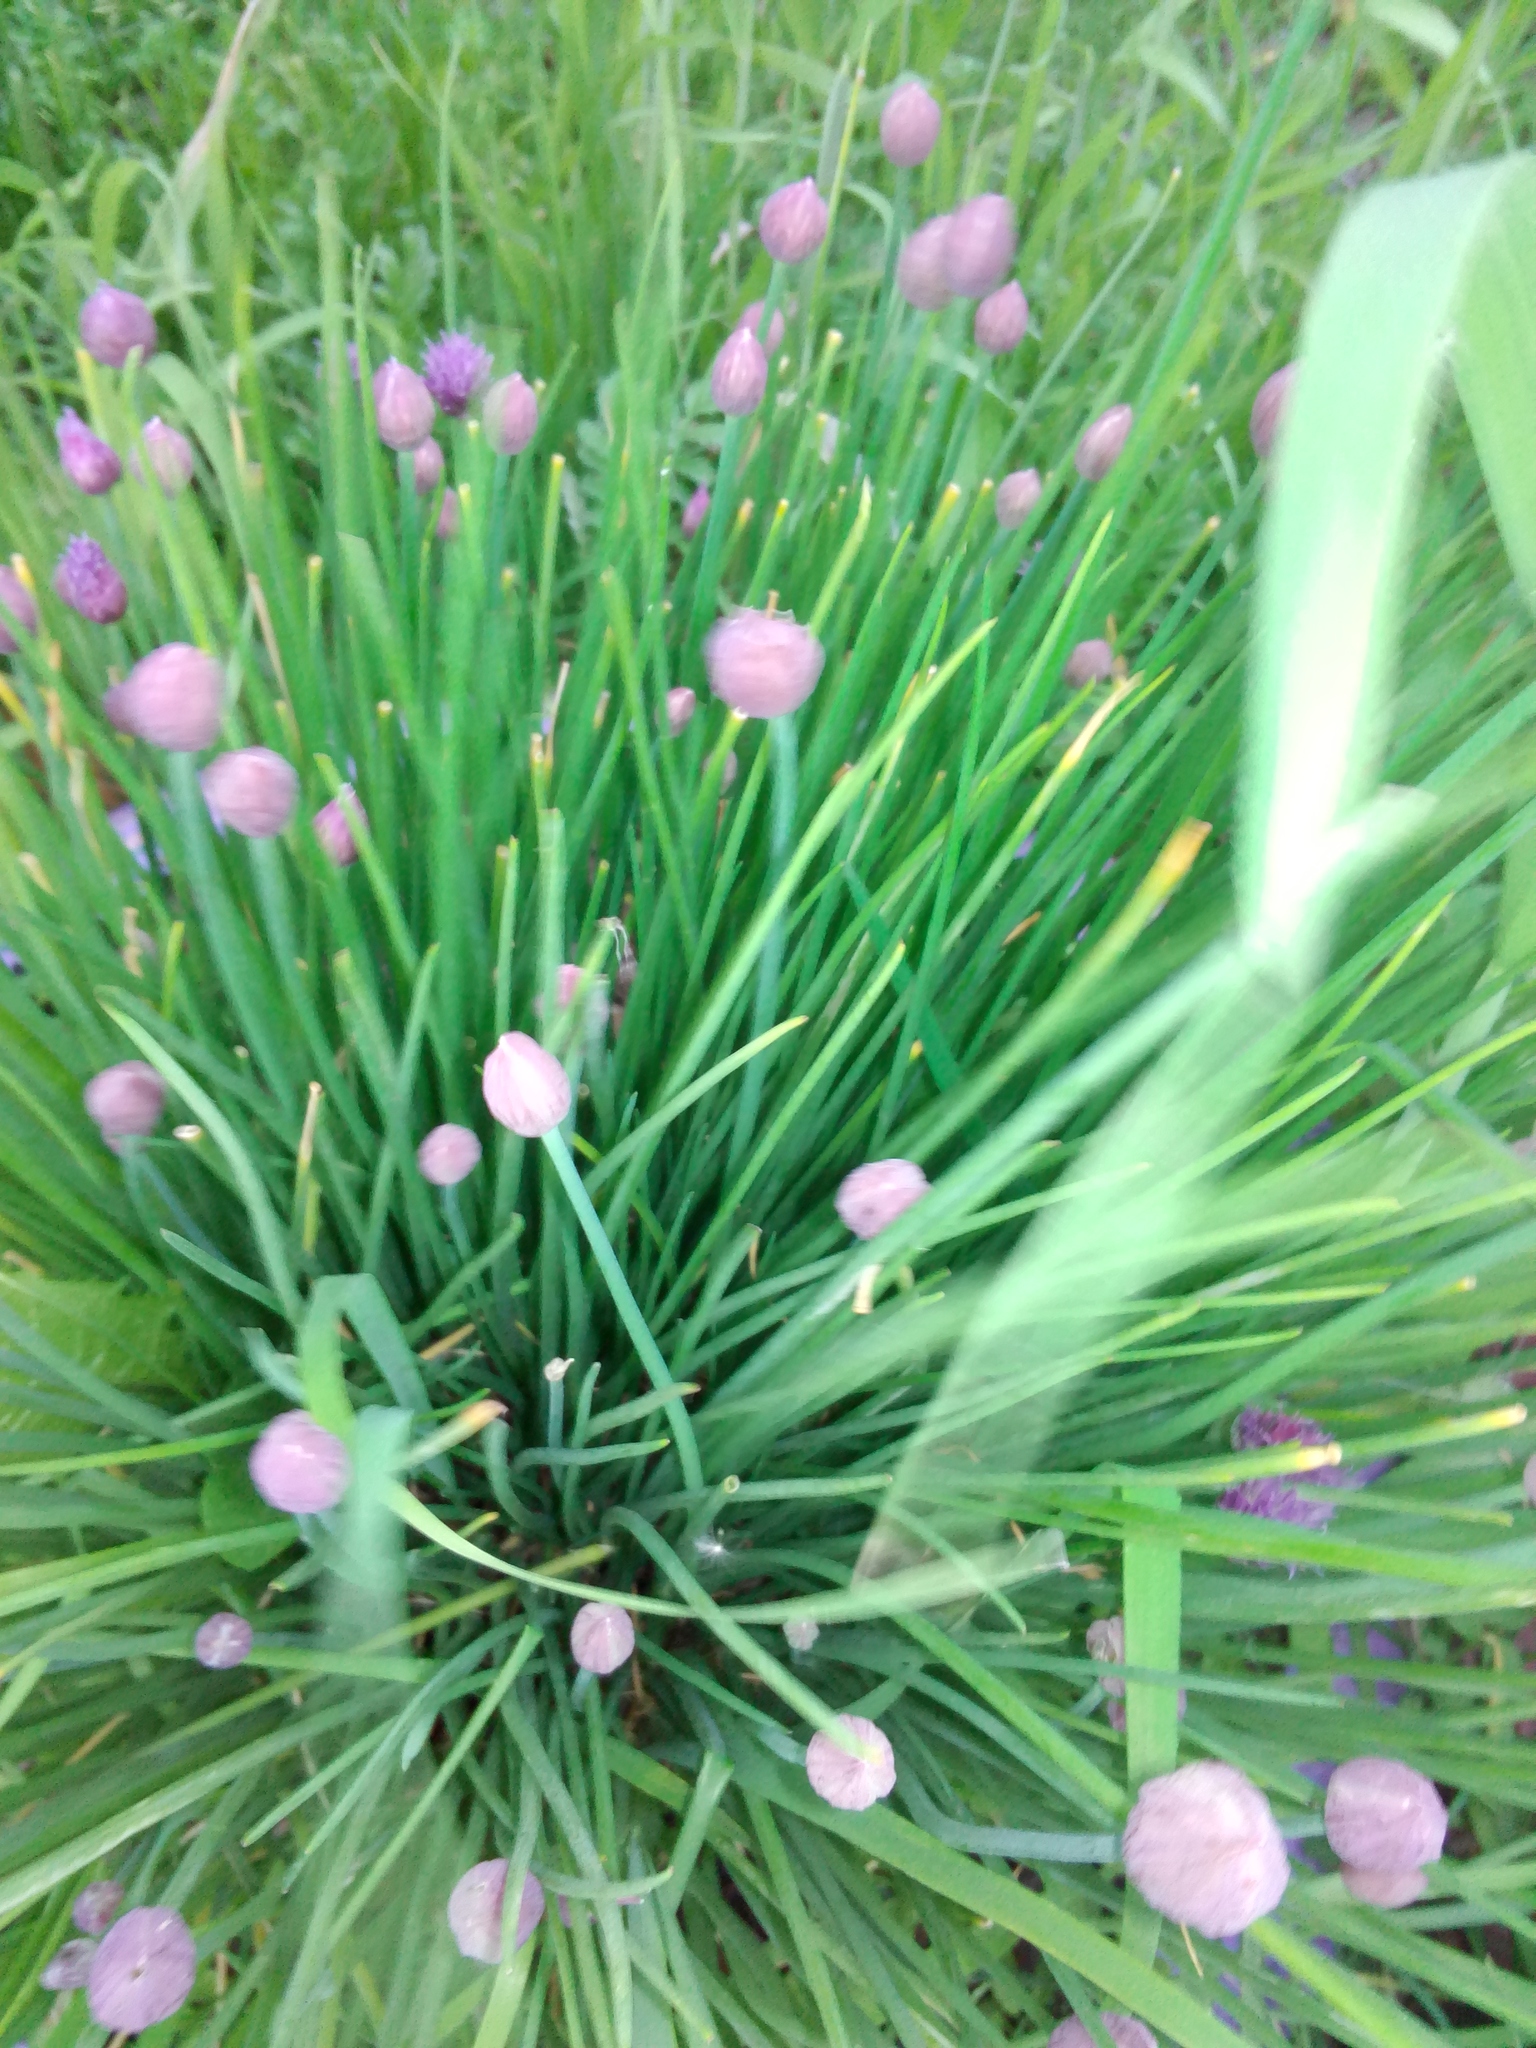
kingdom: Plantae
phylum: Tracheophyta
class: Liliopsida
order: Asparagales
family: Amaryllidaceae
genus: Allium
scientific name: Allium schoenoprasum
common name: Chives
